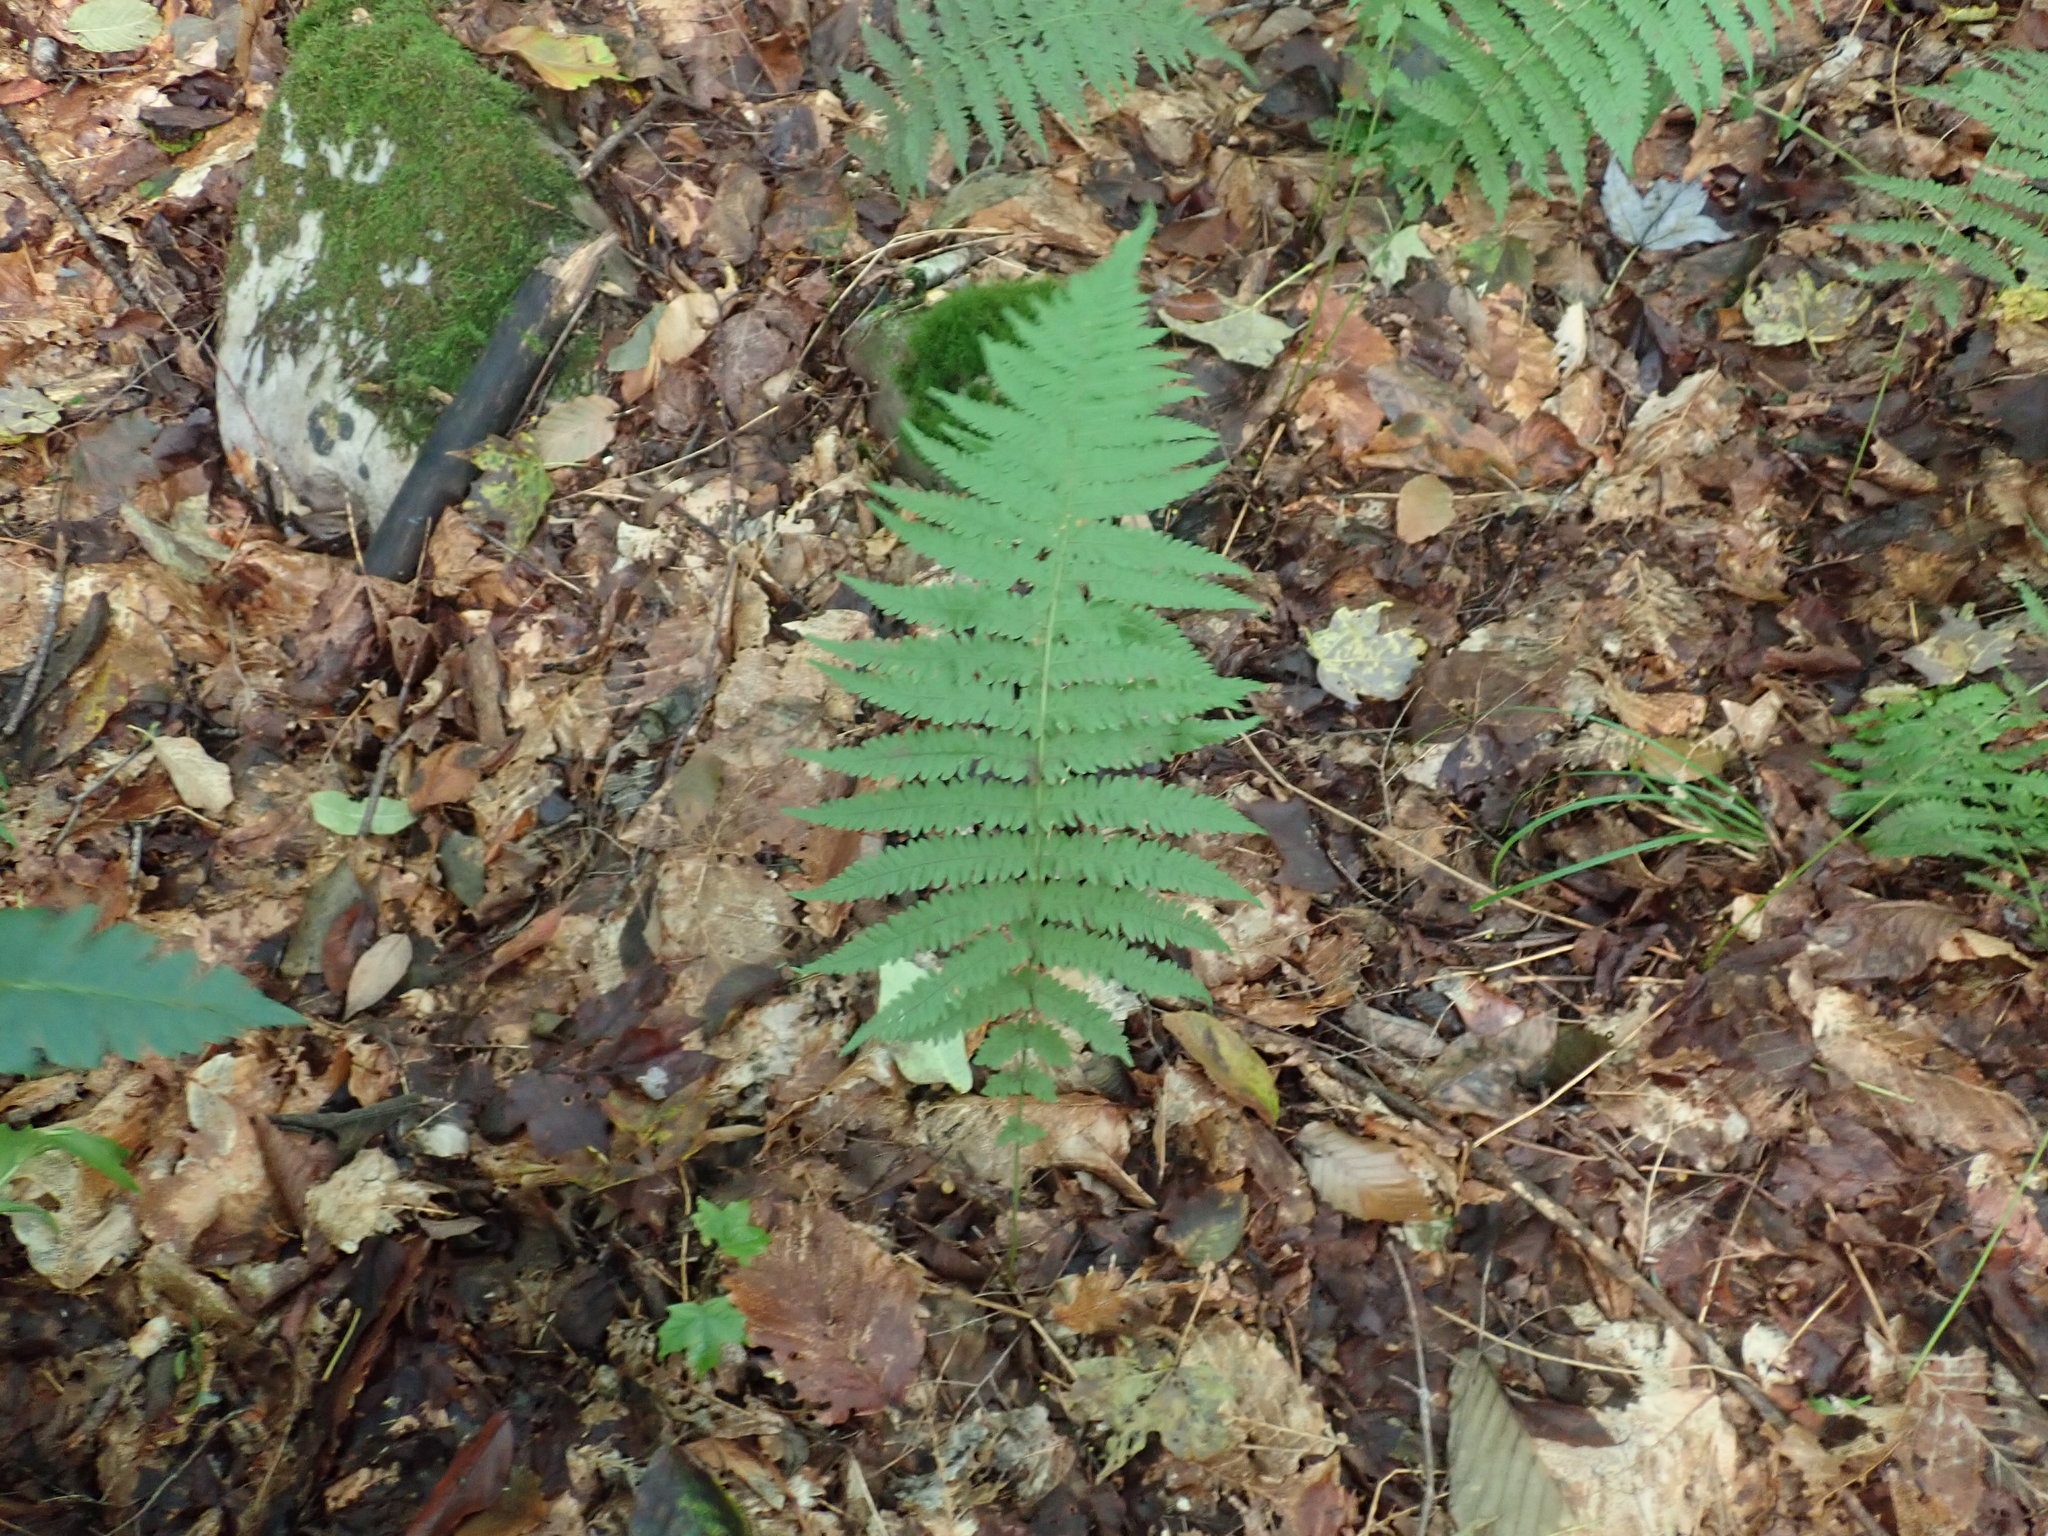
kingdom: Plantae
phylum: Tracheophyta
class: Polypodiopsida
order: Polypodiales
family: Thelypteridaceae
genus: Amauropelta
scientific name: Amauropelta noveboracensis
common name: New york fern
